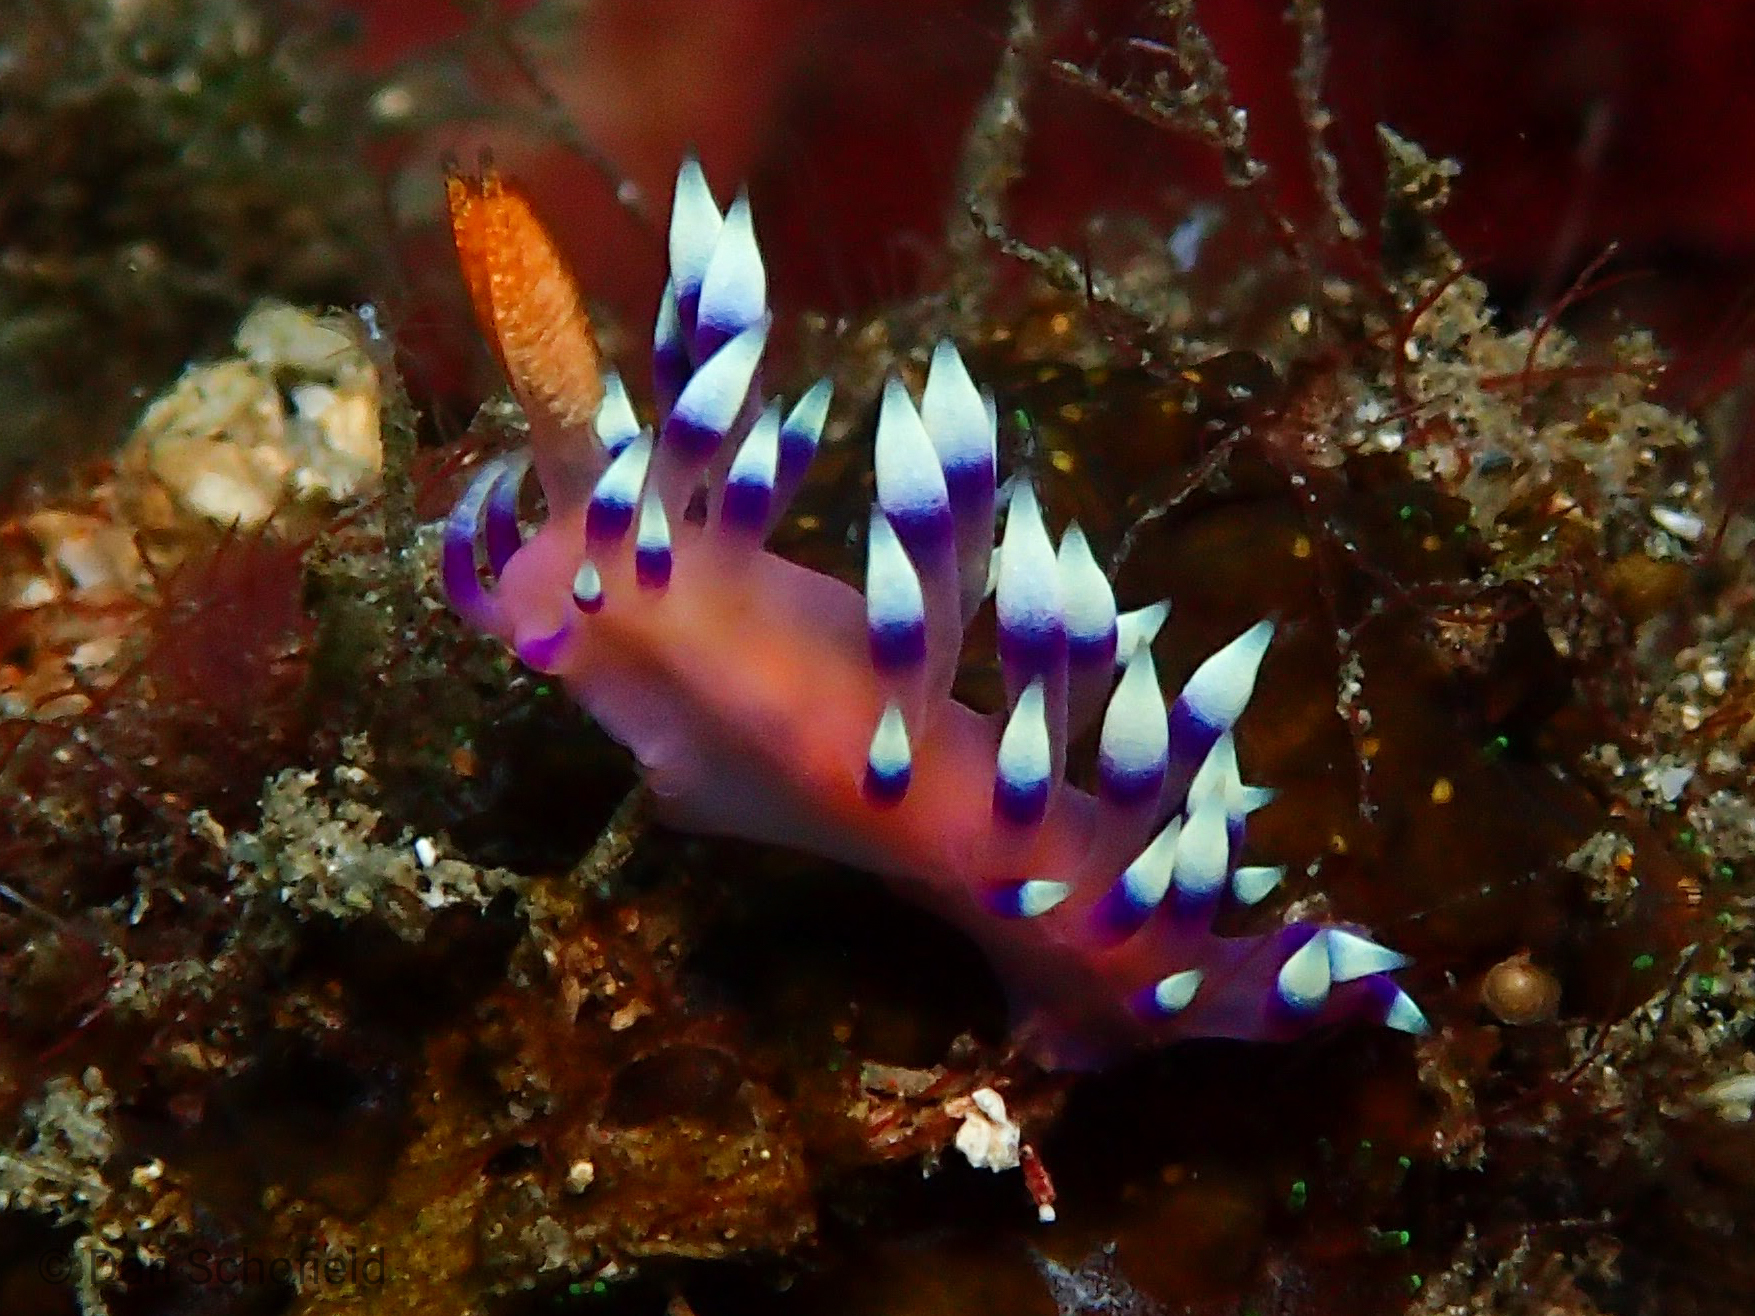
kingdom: Animalia
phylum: Mollusca
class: Gastropoda
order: Nudibranchia
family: Flabellinidae
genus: Coryphellina
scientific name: Coryphellina exoptata
